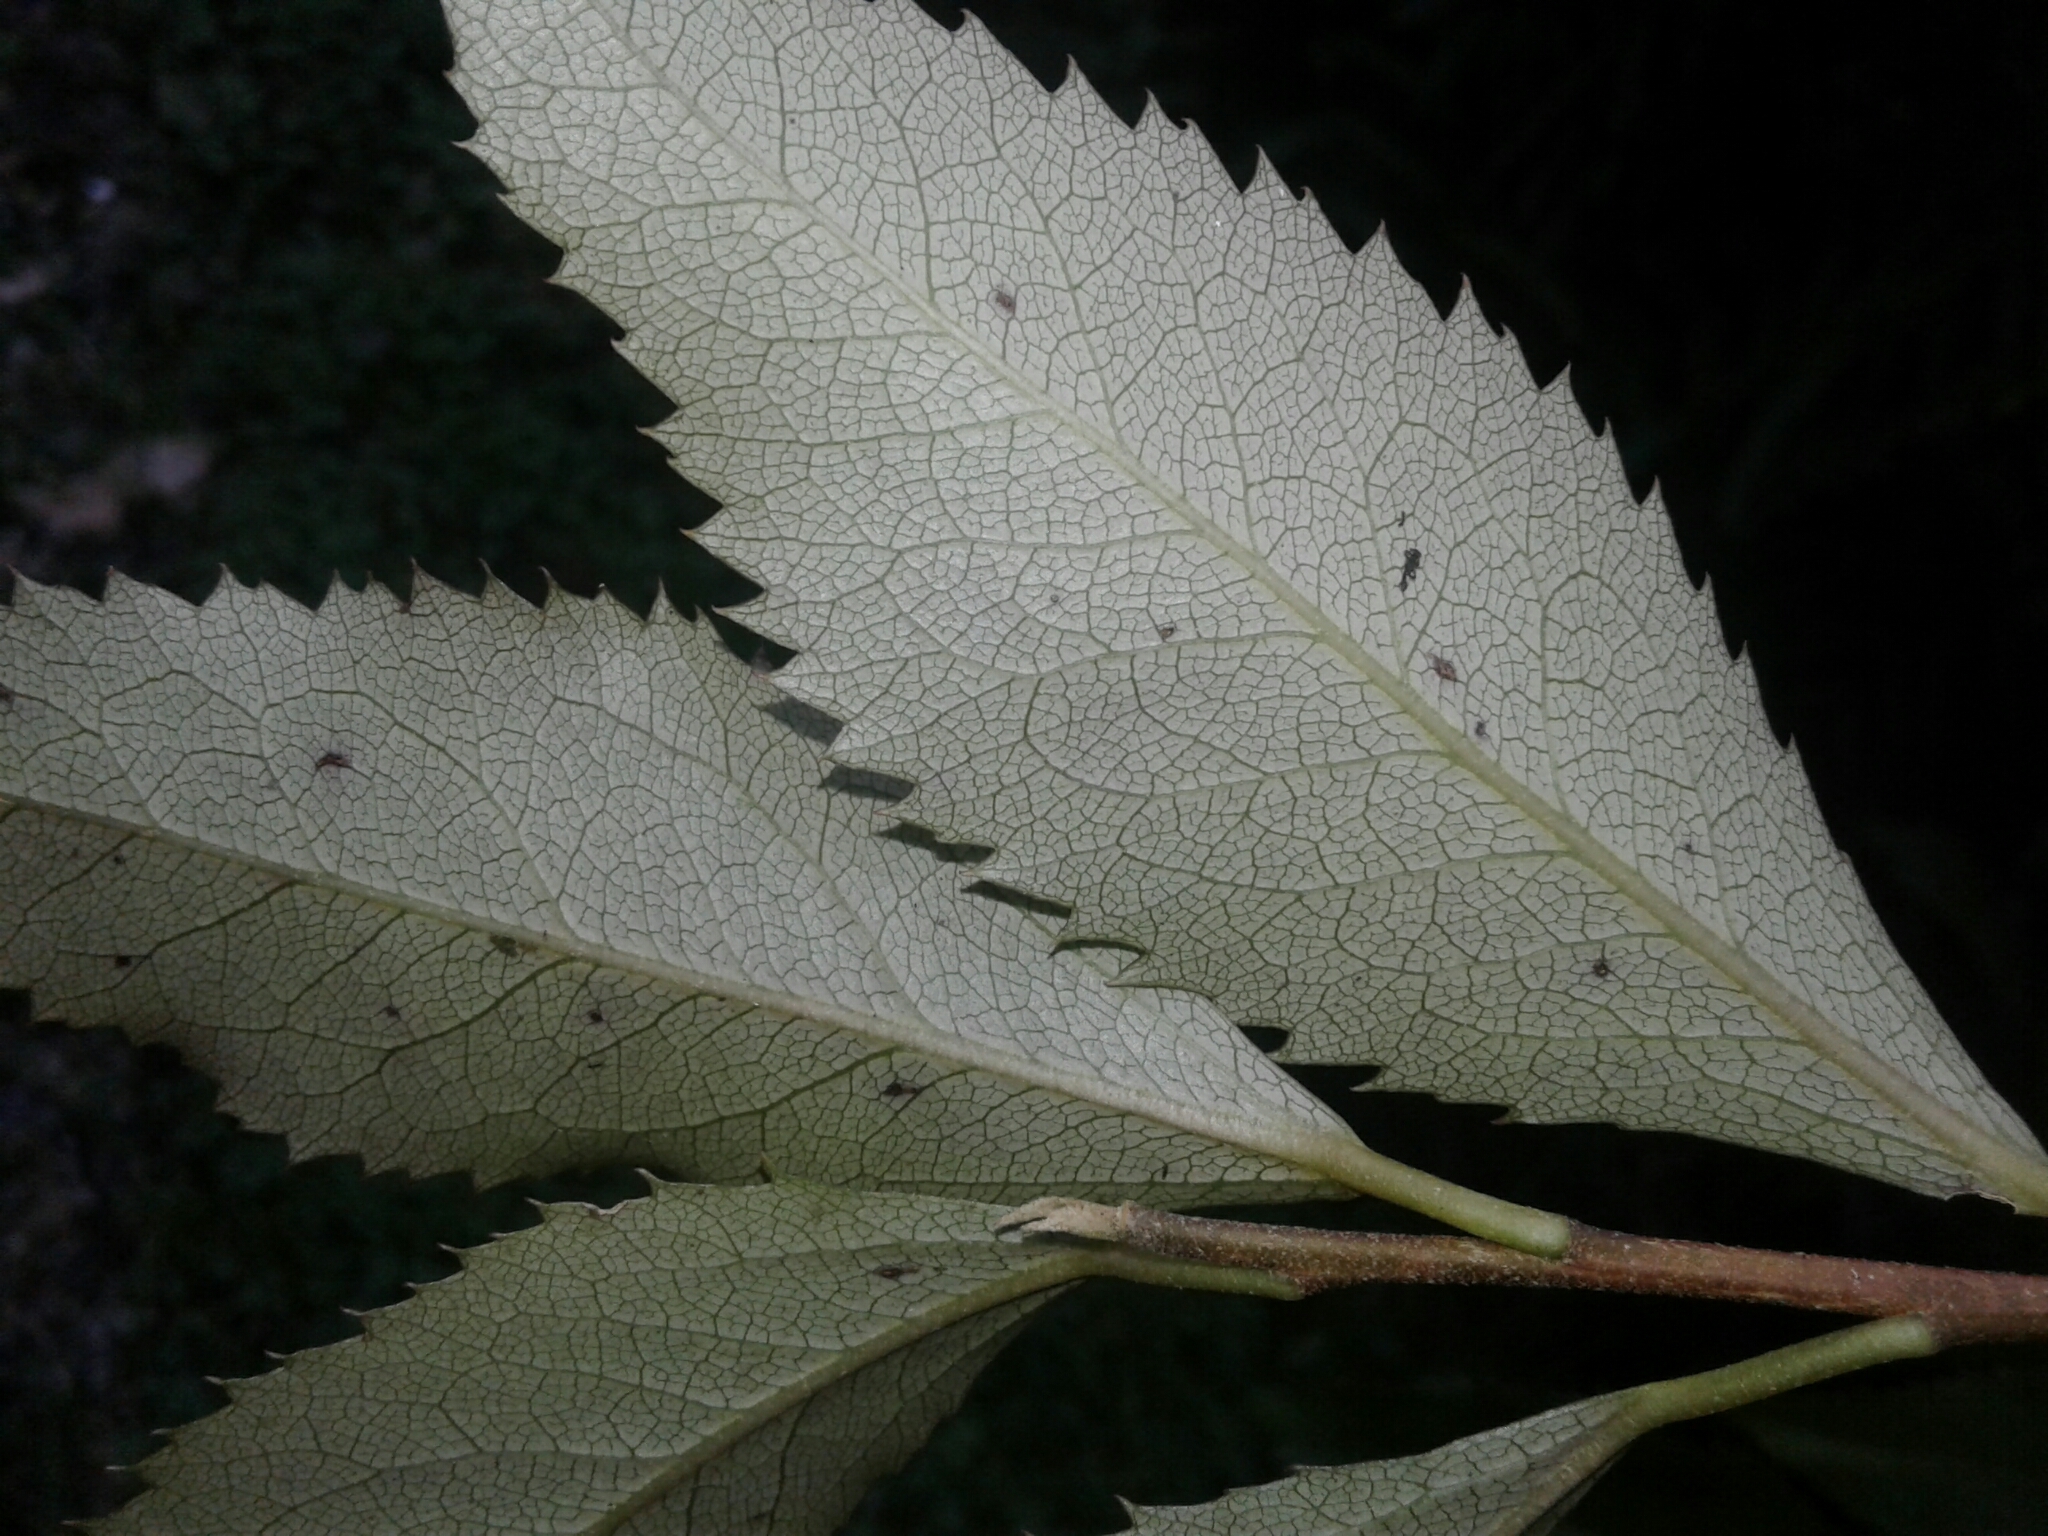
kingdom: Plantae
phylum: Tracheophyta
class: Magnoliopsida
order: Malvales
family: Malvaceae
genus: Hoheria
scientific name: Hoheria ovata
